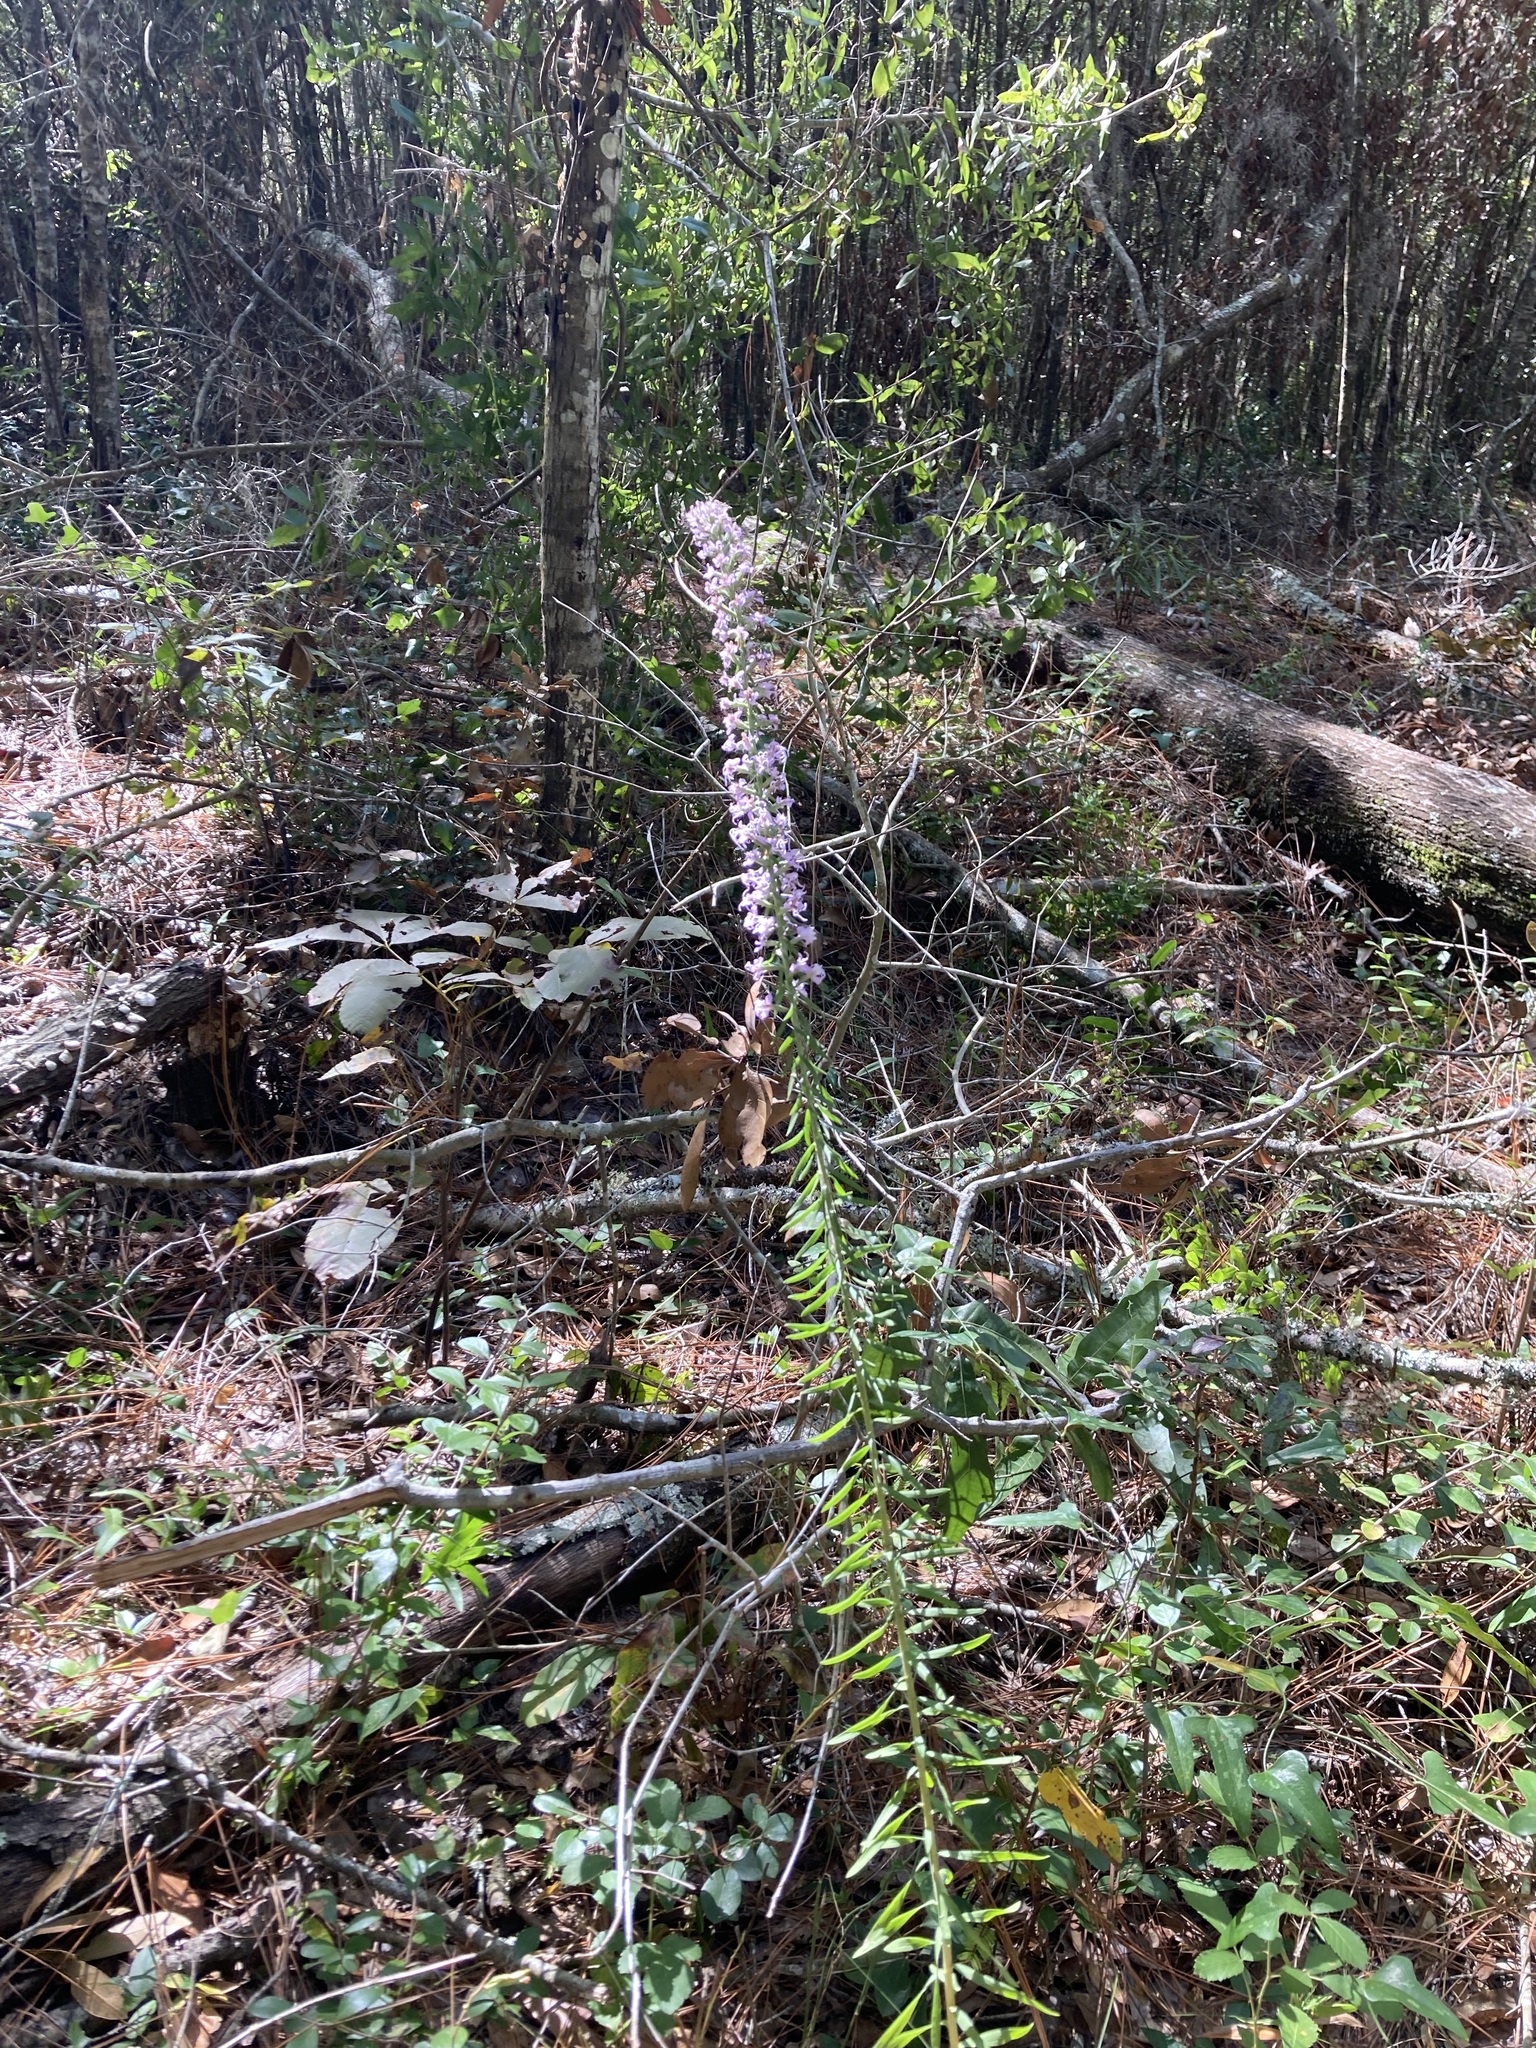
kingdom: Plantae
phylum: Tracheophyta
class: Magnoliopsida
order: Asterales
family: Asteraceae
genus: Liatris
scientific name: Liatris elegans
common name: Pinkscale gayfeather
